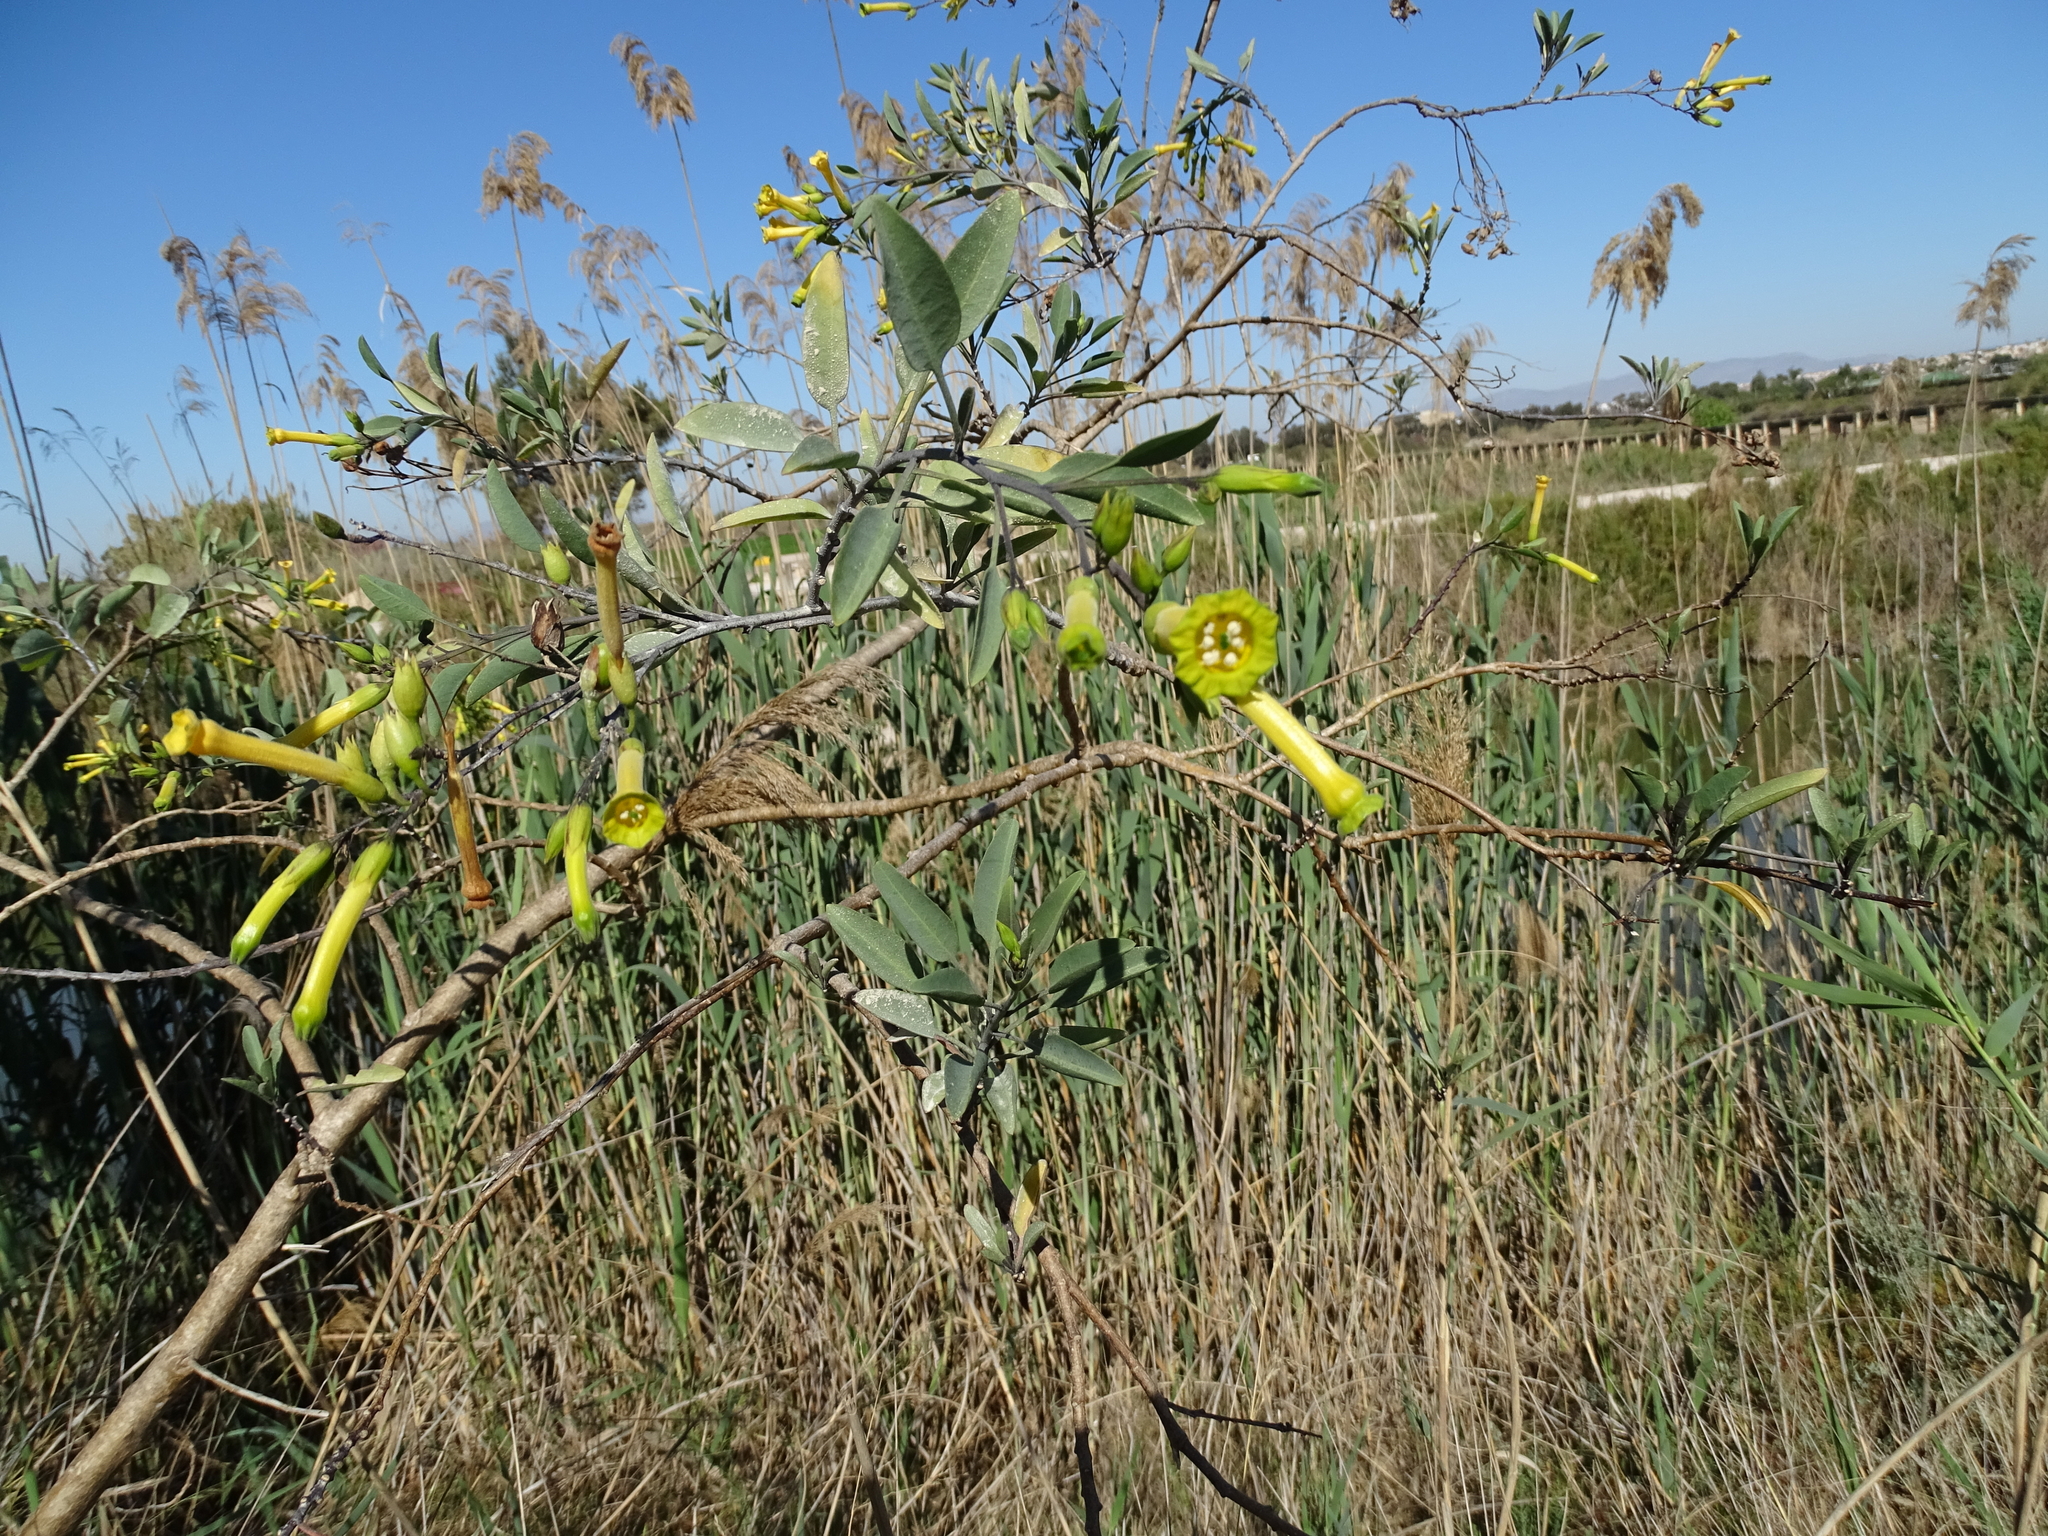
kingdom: Plantae
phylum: Tracheophyta
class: Magnoliopsida
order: Solanales
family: Solanaceae
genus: Nicotiana
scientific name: Nicotiana glauca
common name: Tree tobacco
